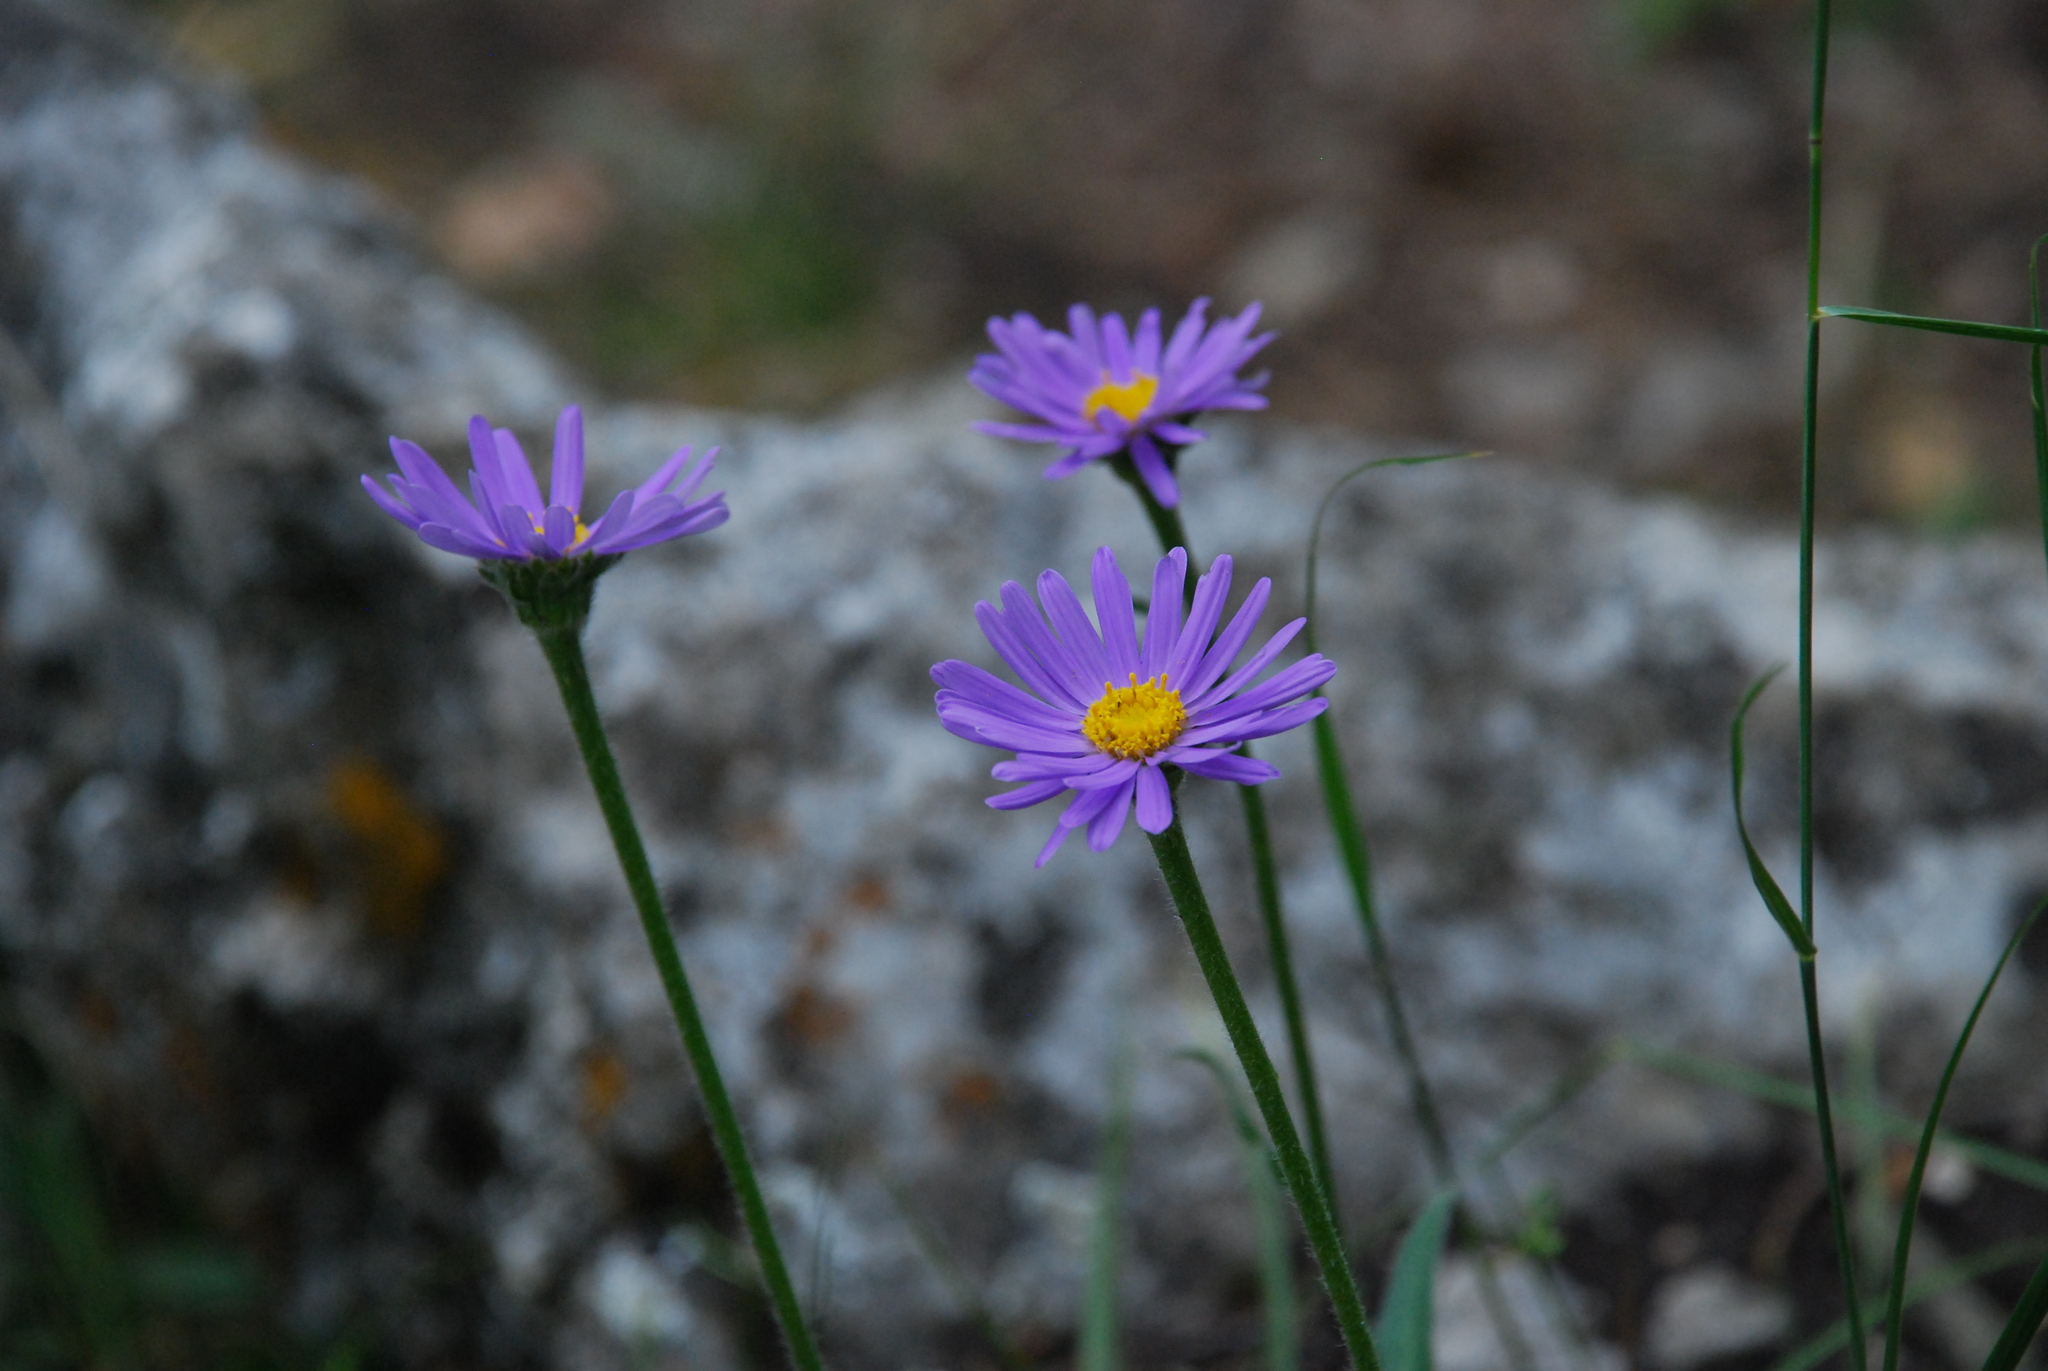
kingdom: Plantae
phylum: Tracheophyta
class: Magnoliopsida
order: Asterales
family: Asteraceae
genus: Aster
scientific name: Aster alpinus
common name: Alpine aster
